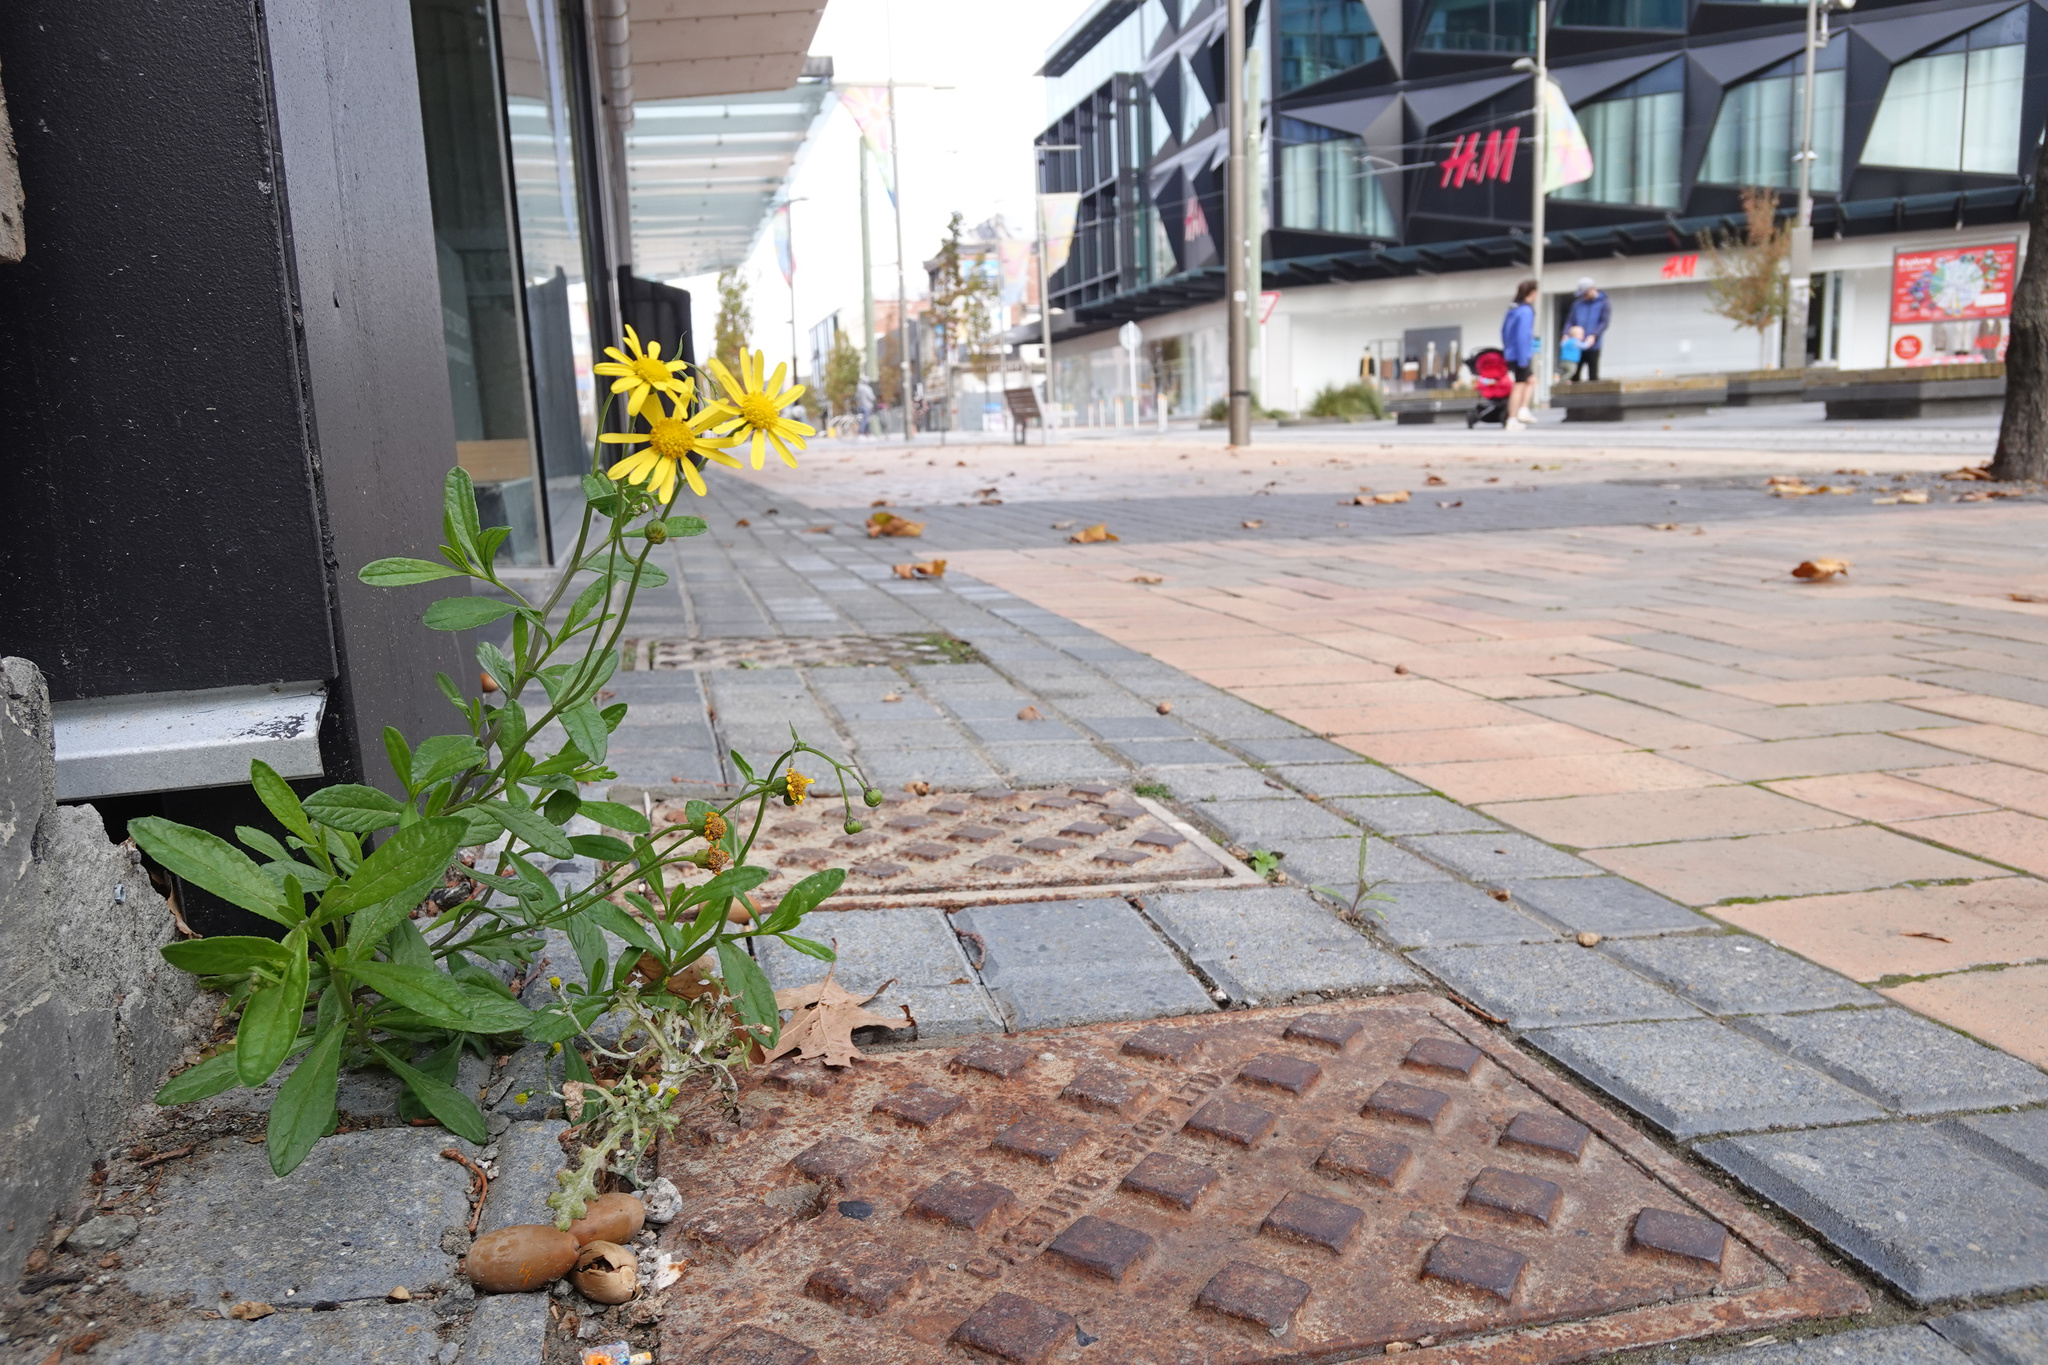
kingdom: Plantae
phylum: Tracheophyta
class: Magnoliopsida
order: Asterales
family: Asteraceae
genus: Senecio
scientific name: Senecio skirrhodon
